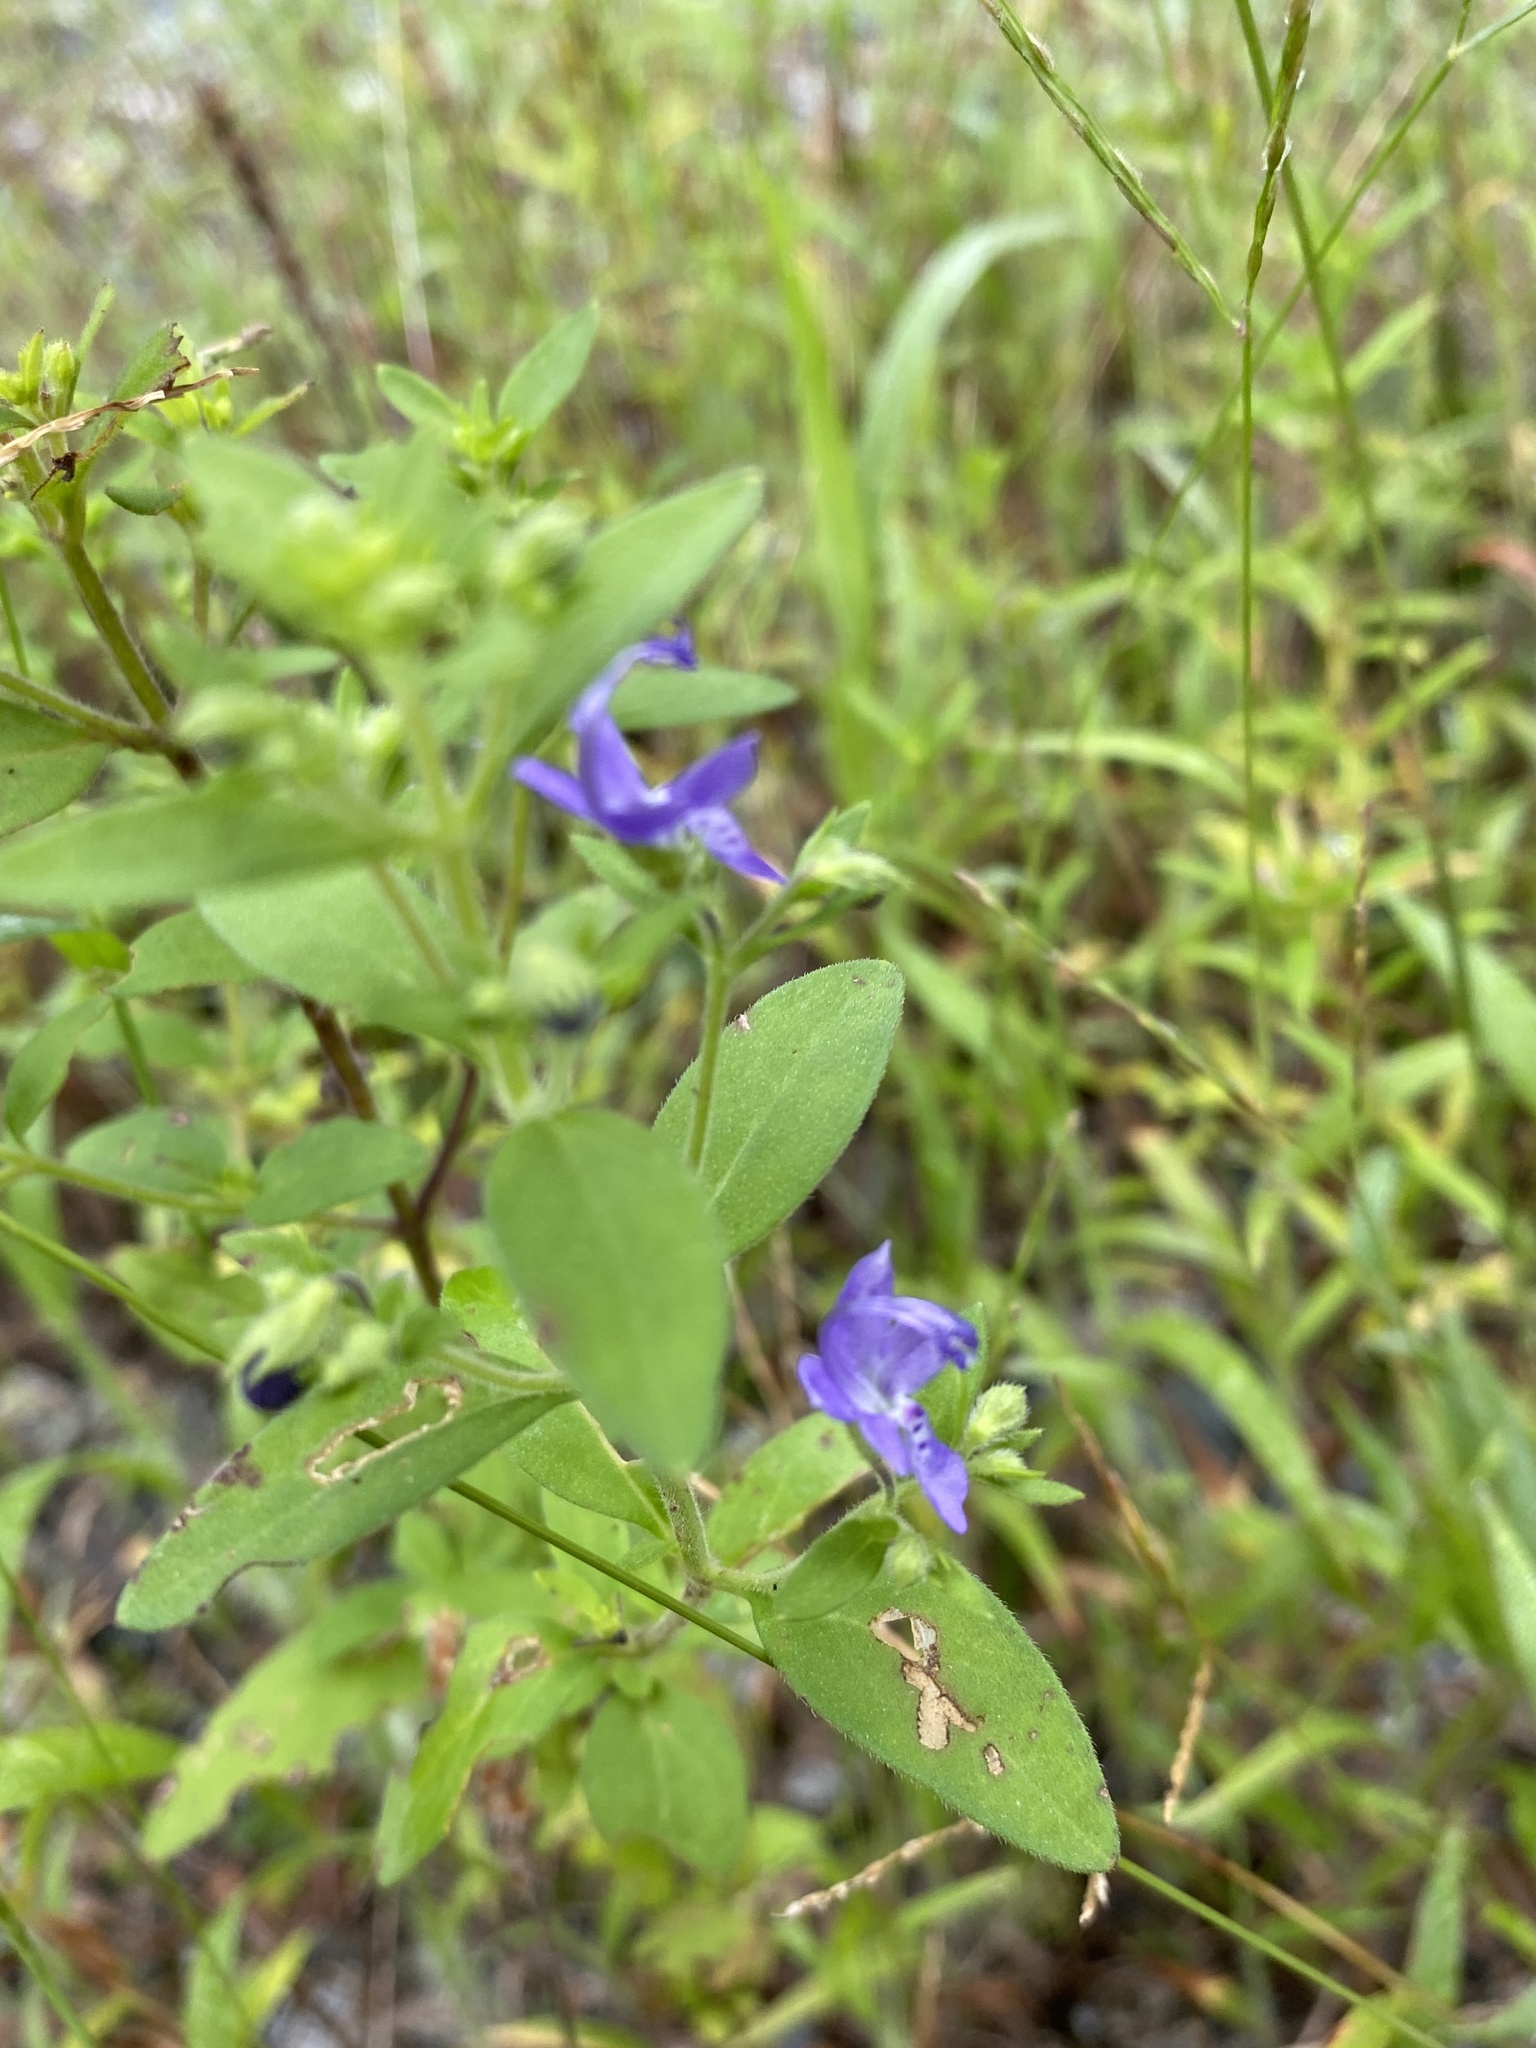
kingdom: Plantae
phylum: Tracheophyta
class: Magnoliopsida
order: Lamiales
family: Lamiaceae
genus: Trichostema
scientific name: Trichostema dichotomum
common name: Bastard pennyroyal
